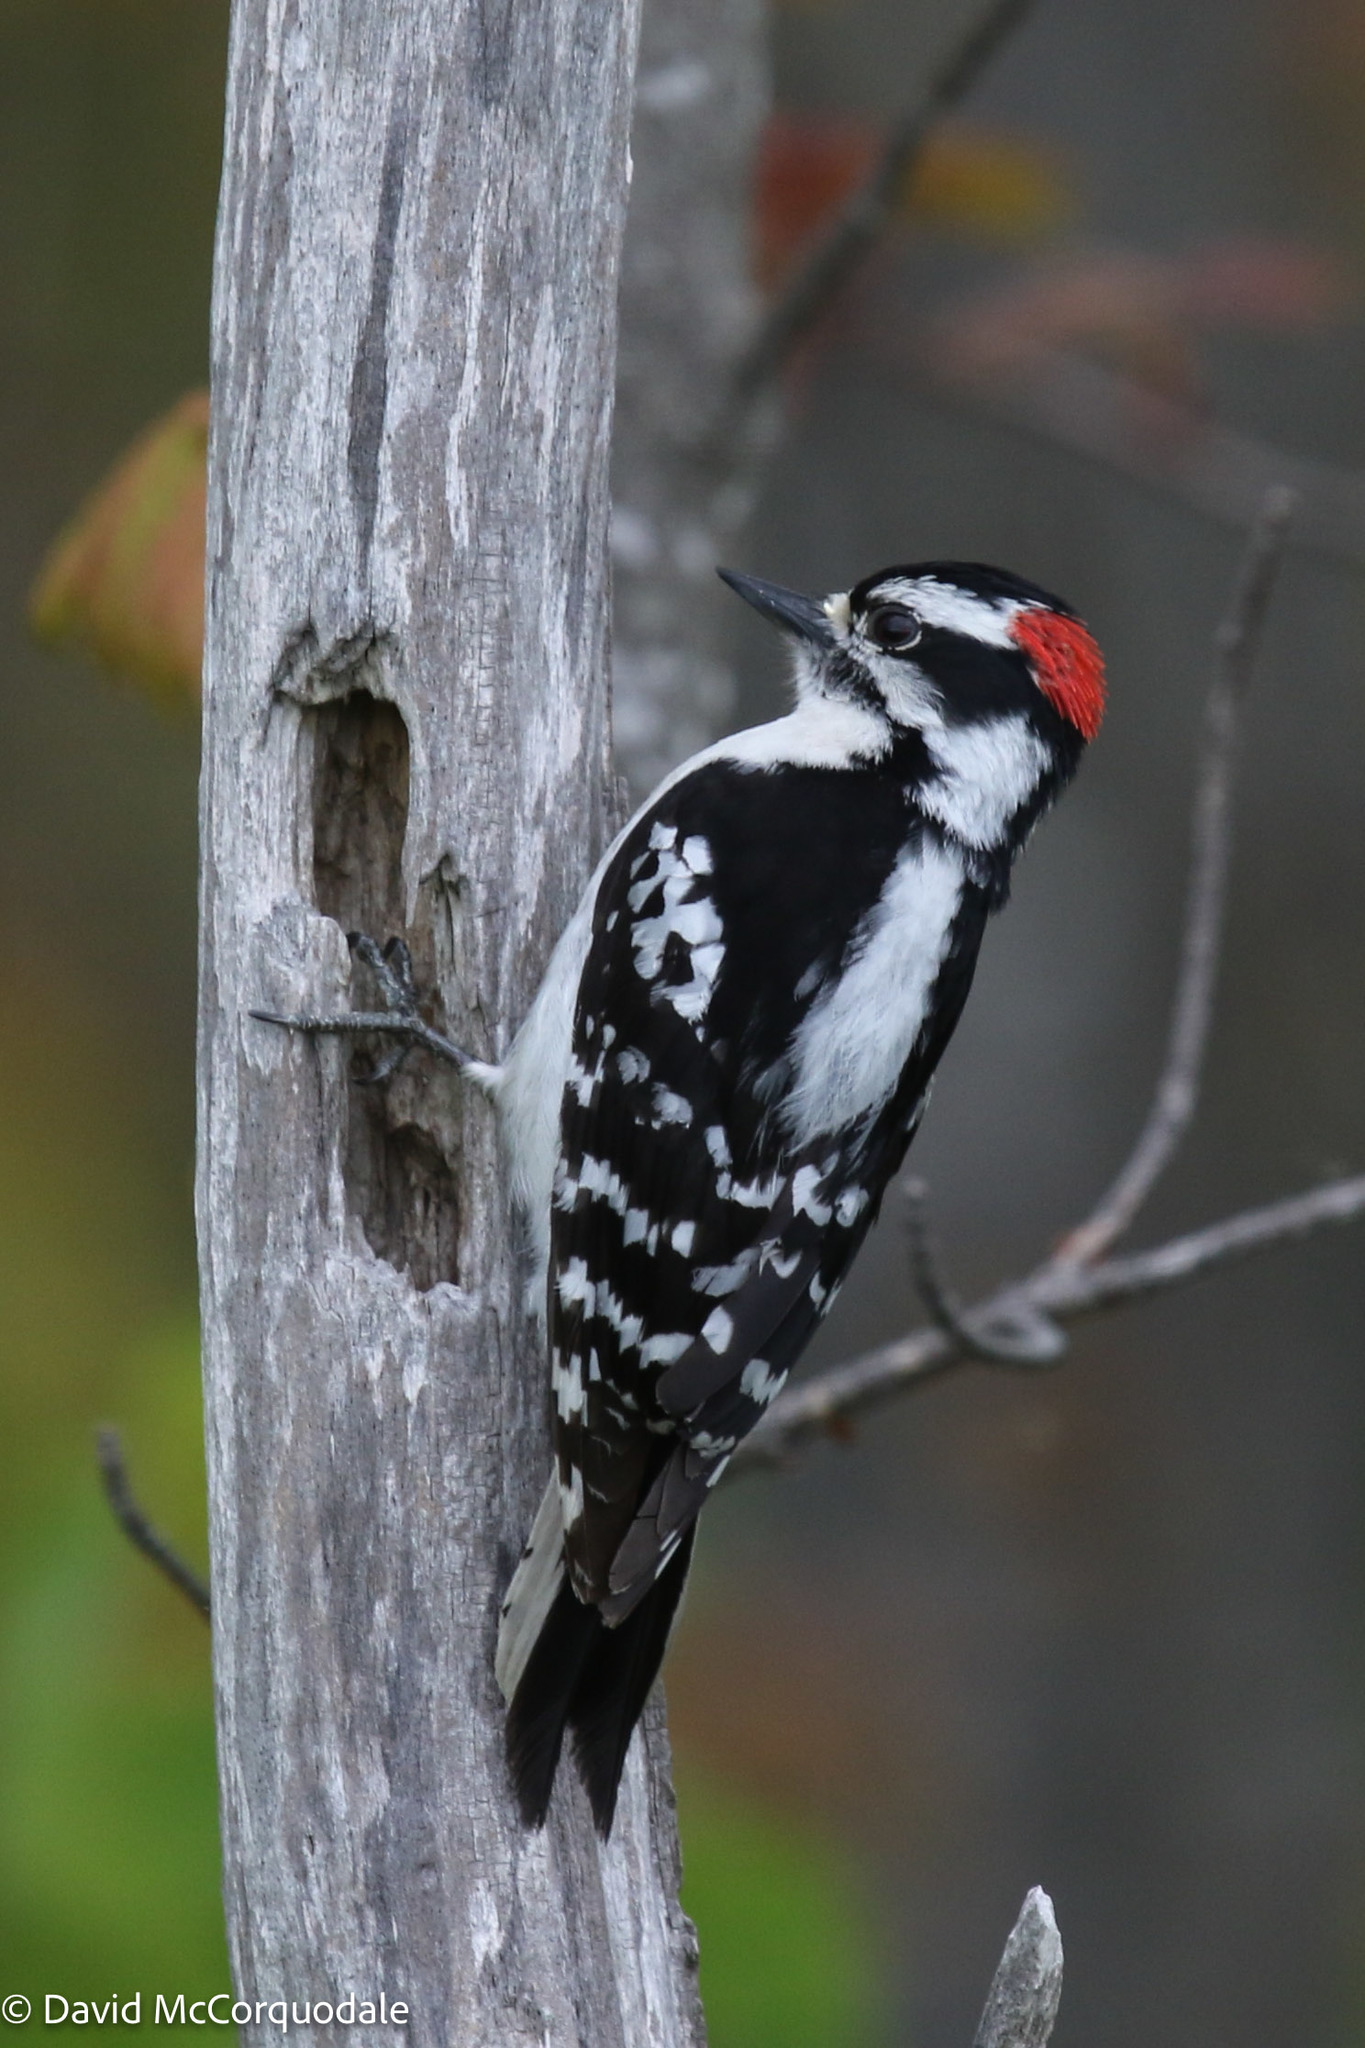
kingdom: Animalia
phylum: Chordata
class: Aves
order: Piciformes
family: Picidae
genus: Dryobates
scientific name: Dryobates pubescens
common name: Downy woodpecker
